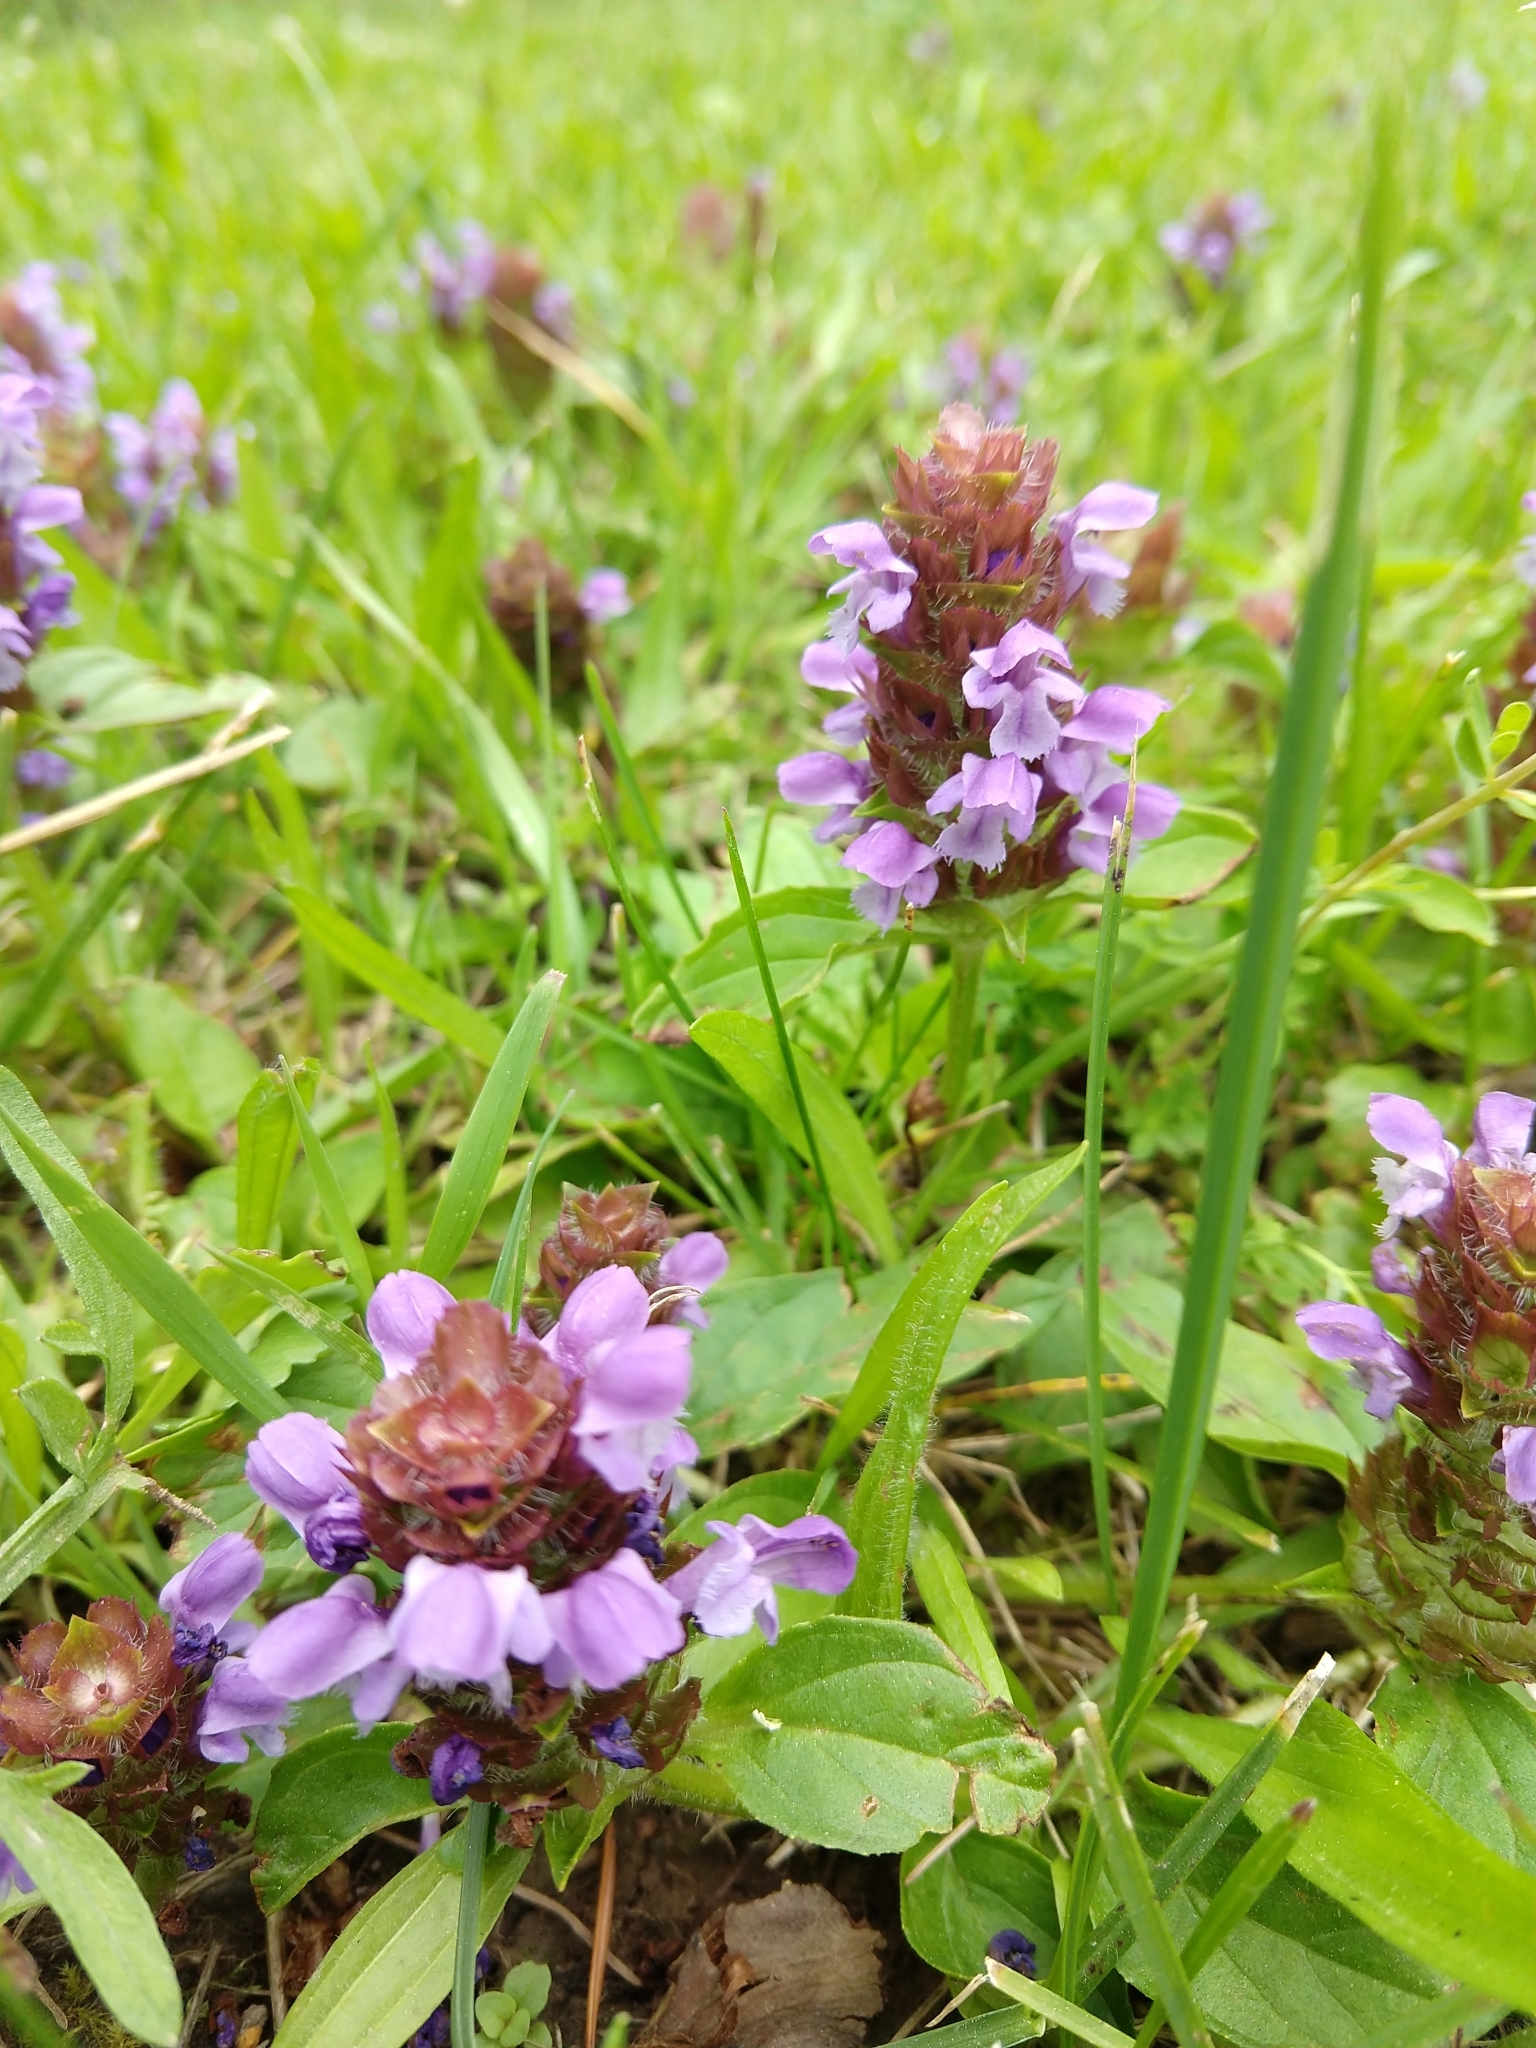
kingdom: Plantae
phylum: Tracheophyta
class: Magnoliopsida
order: Lamiales
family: Lamiaceae
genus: Prunella
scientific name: Prunella vulgaris
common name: Heal-all
